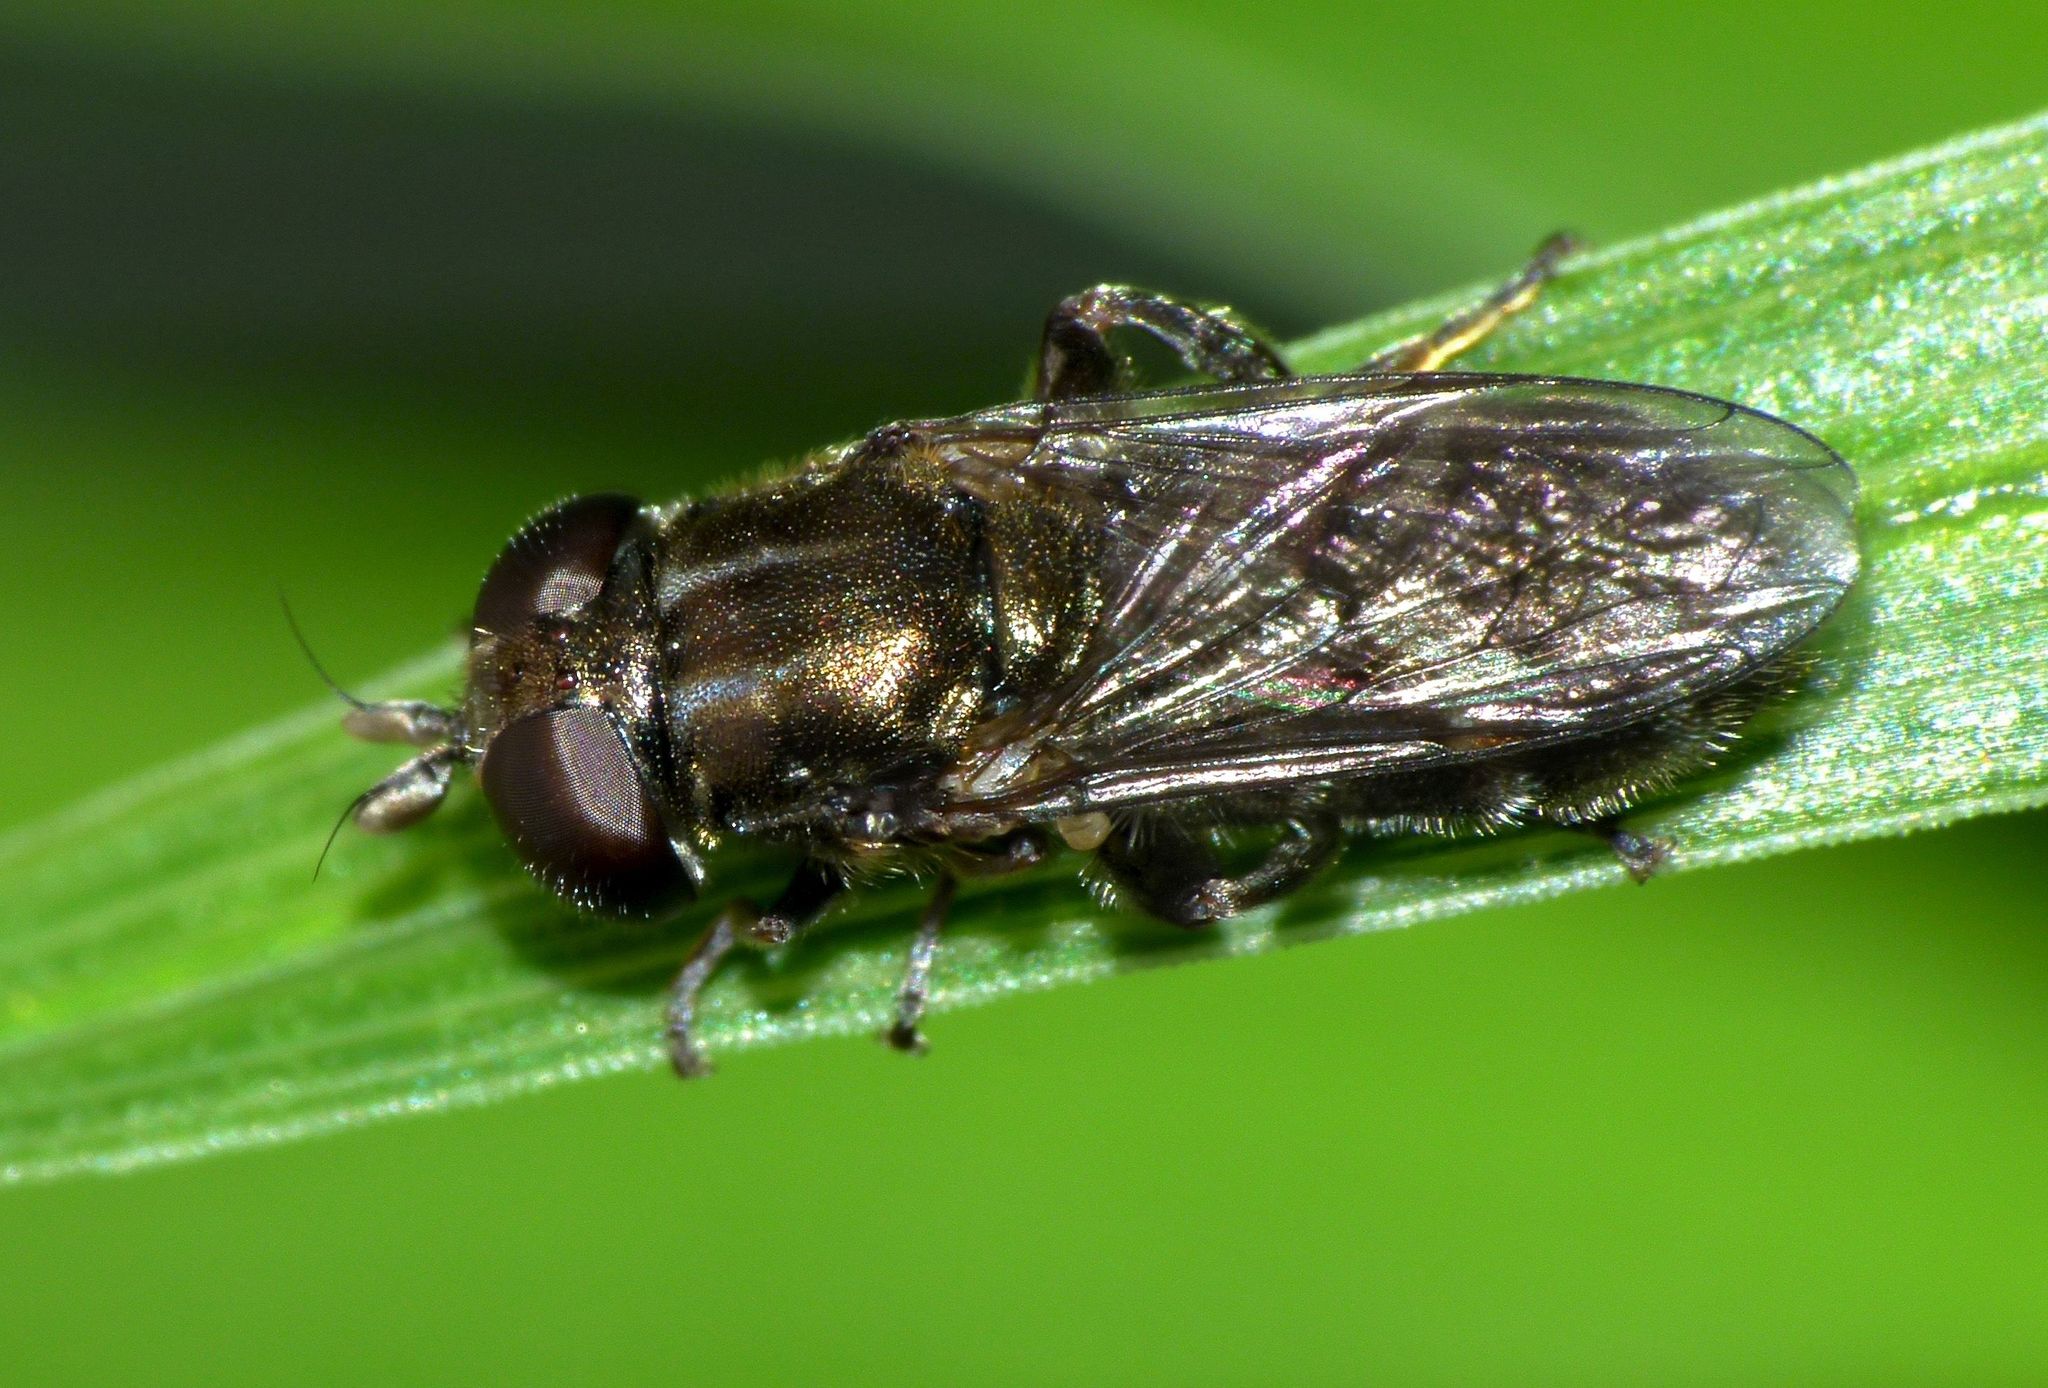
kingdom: Animalia
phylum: Arthropoda
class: Insecta
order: Diptera
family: Syrphidae
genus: Eumerus
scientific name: Eumerus
